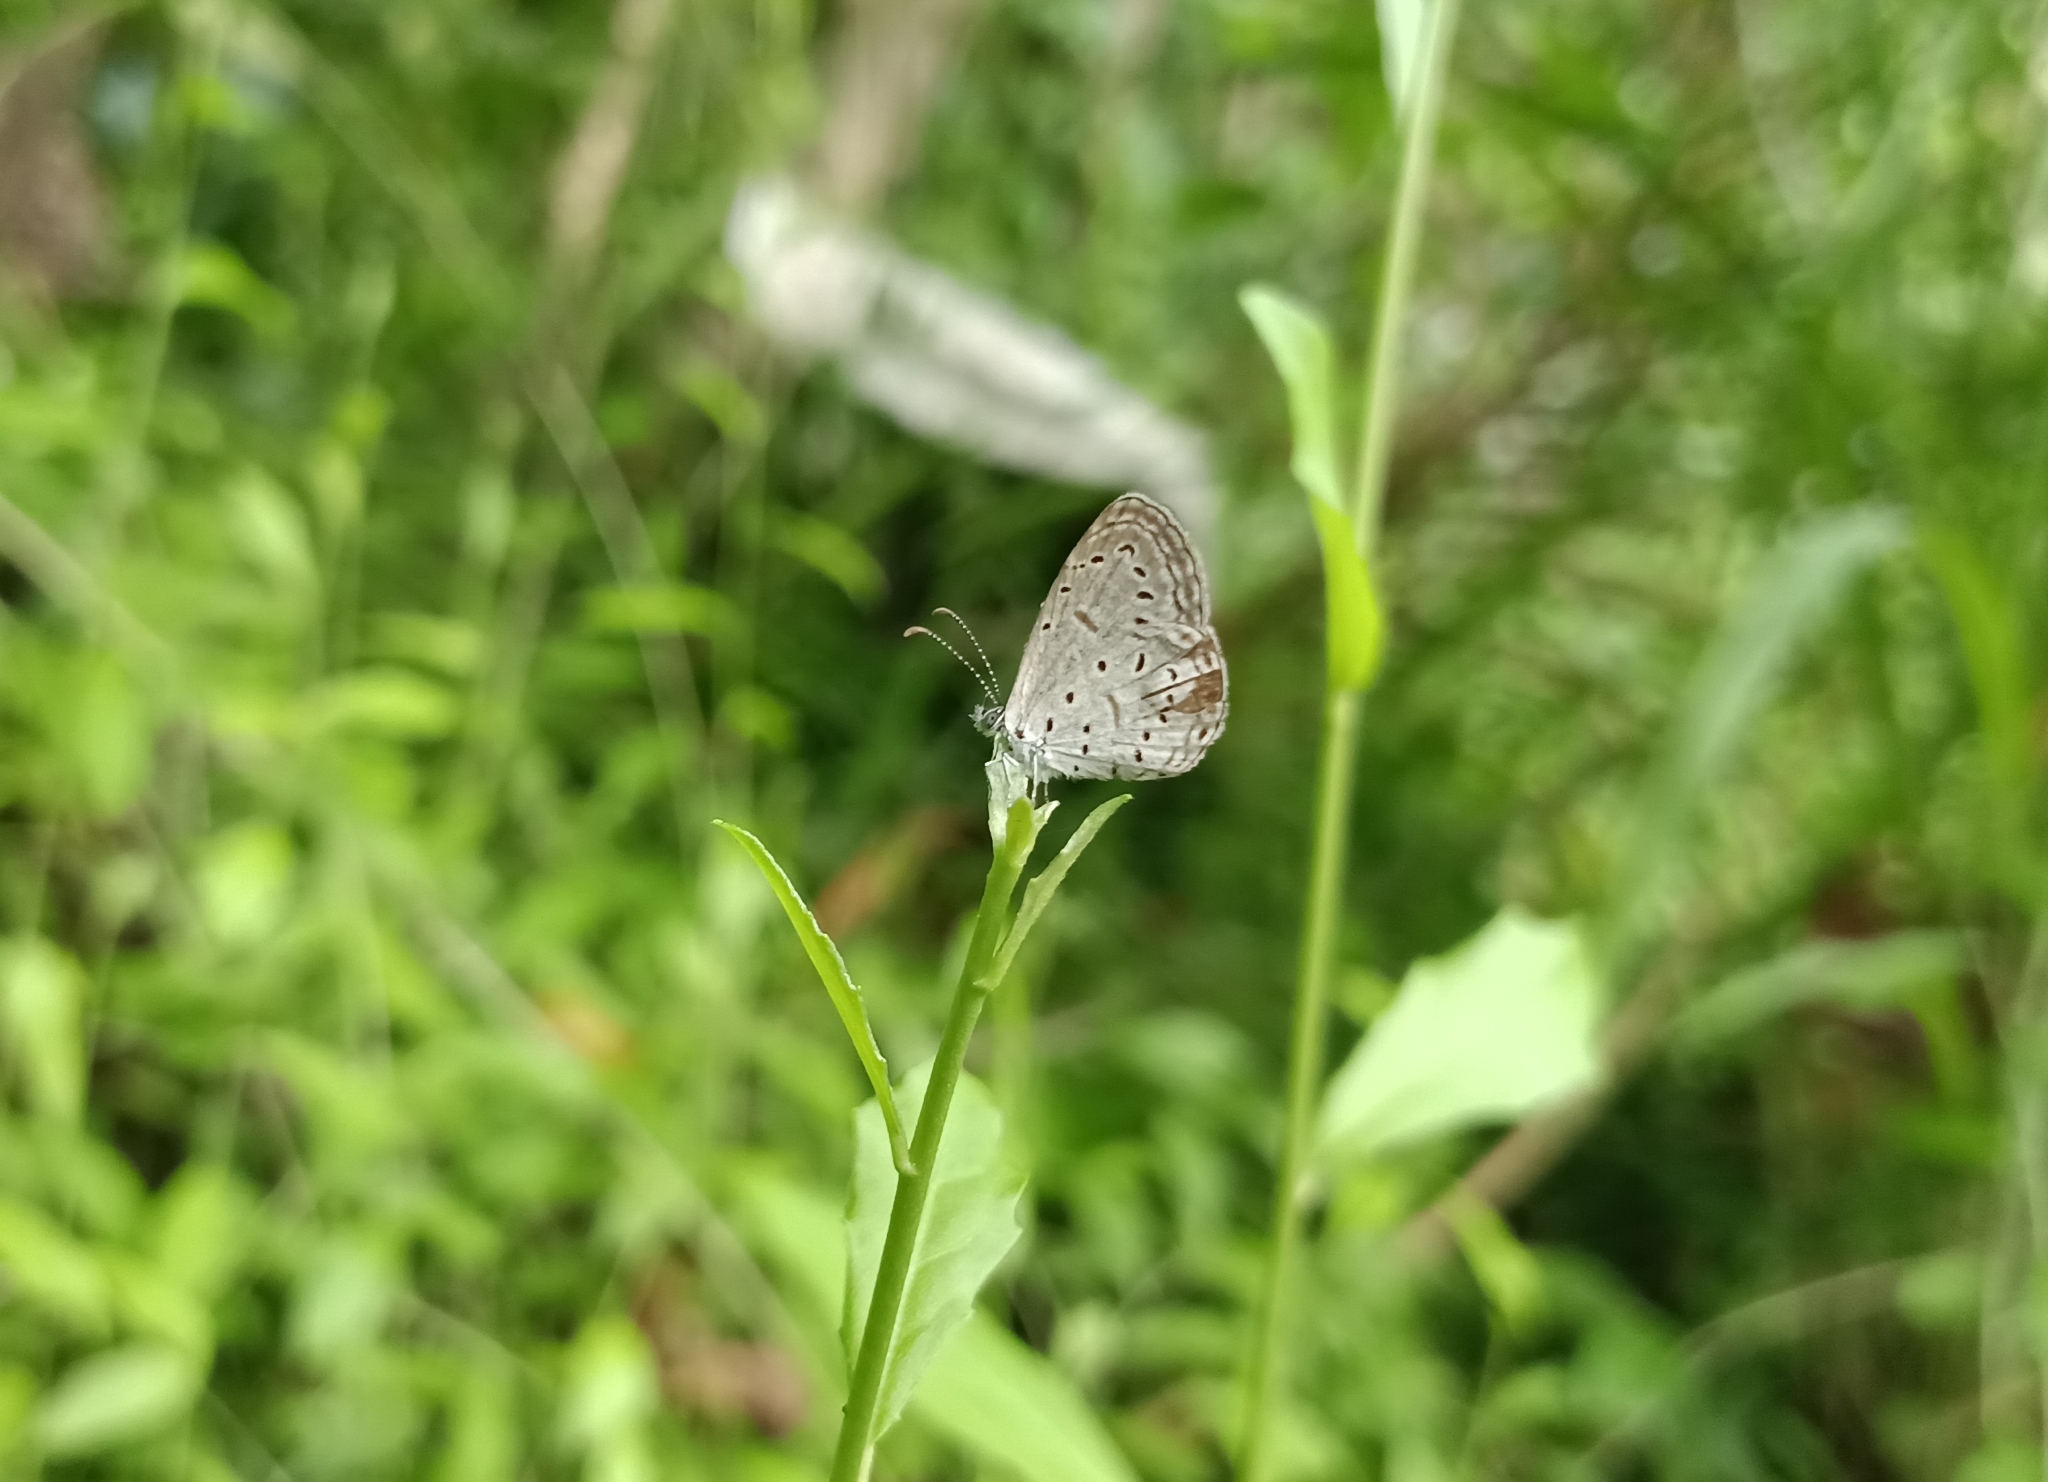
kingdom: Animalia
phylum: Arthropoda
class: Insecta
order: Lepidoptera
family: Lycaenidae
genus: Zizula
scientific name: Zizula hylax
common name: Gaika blue
